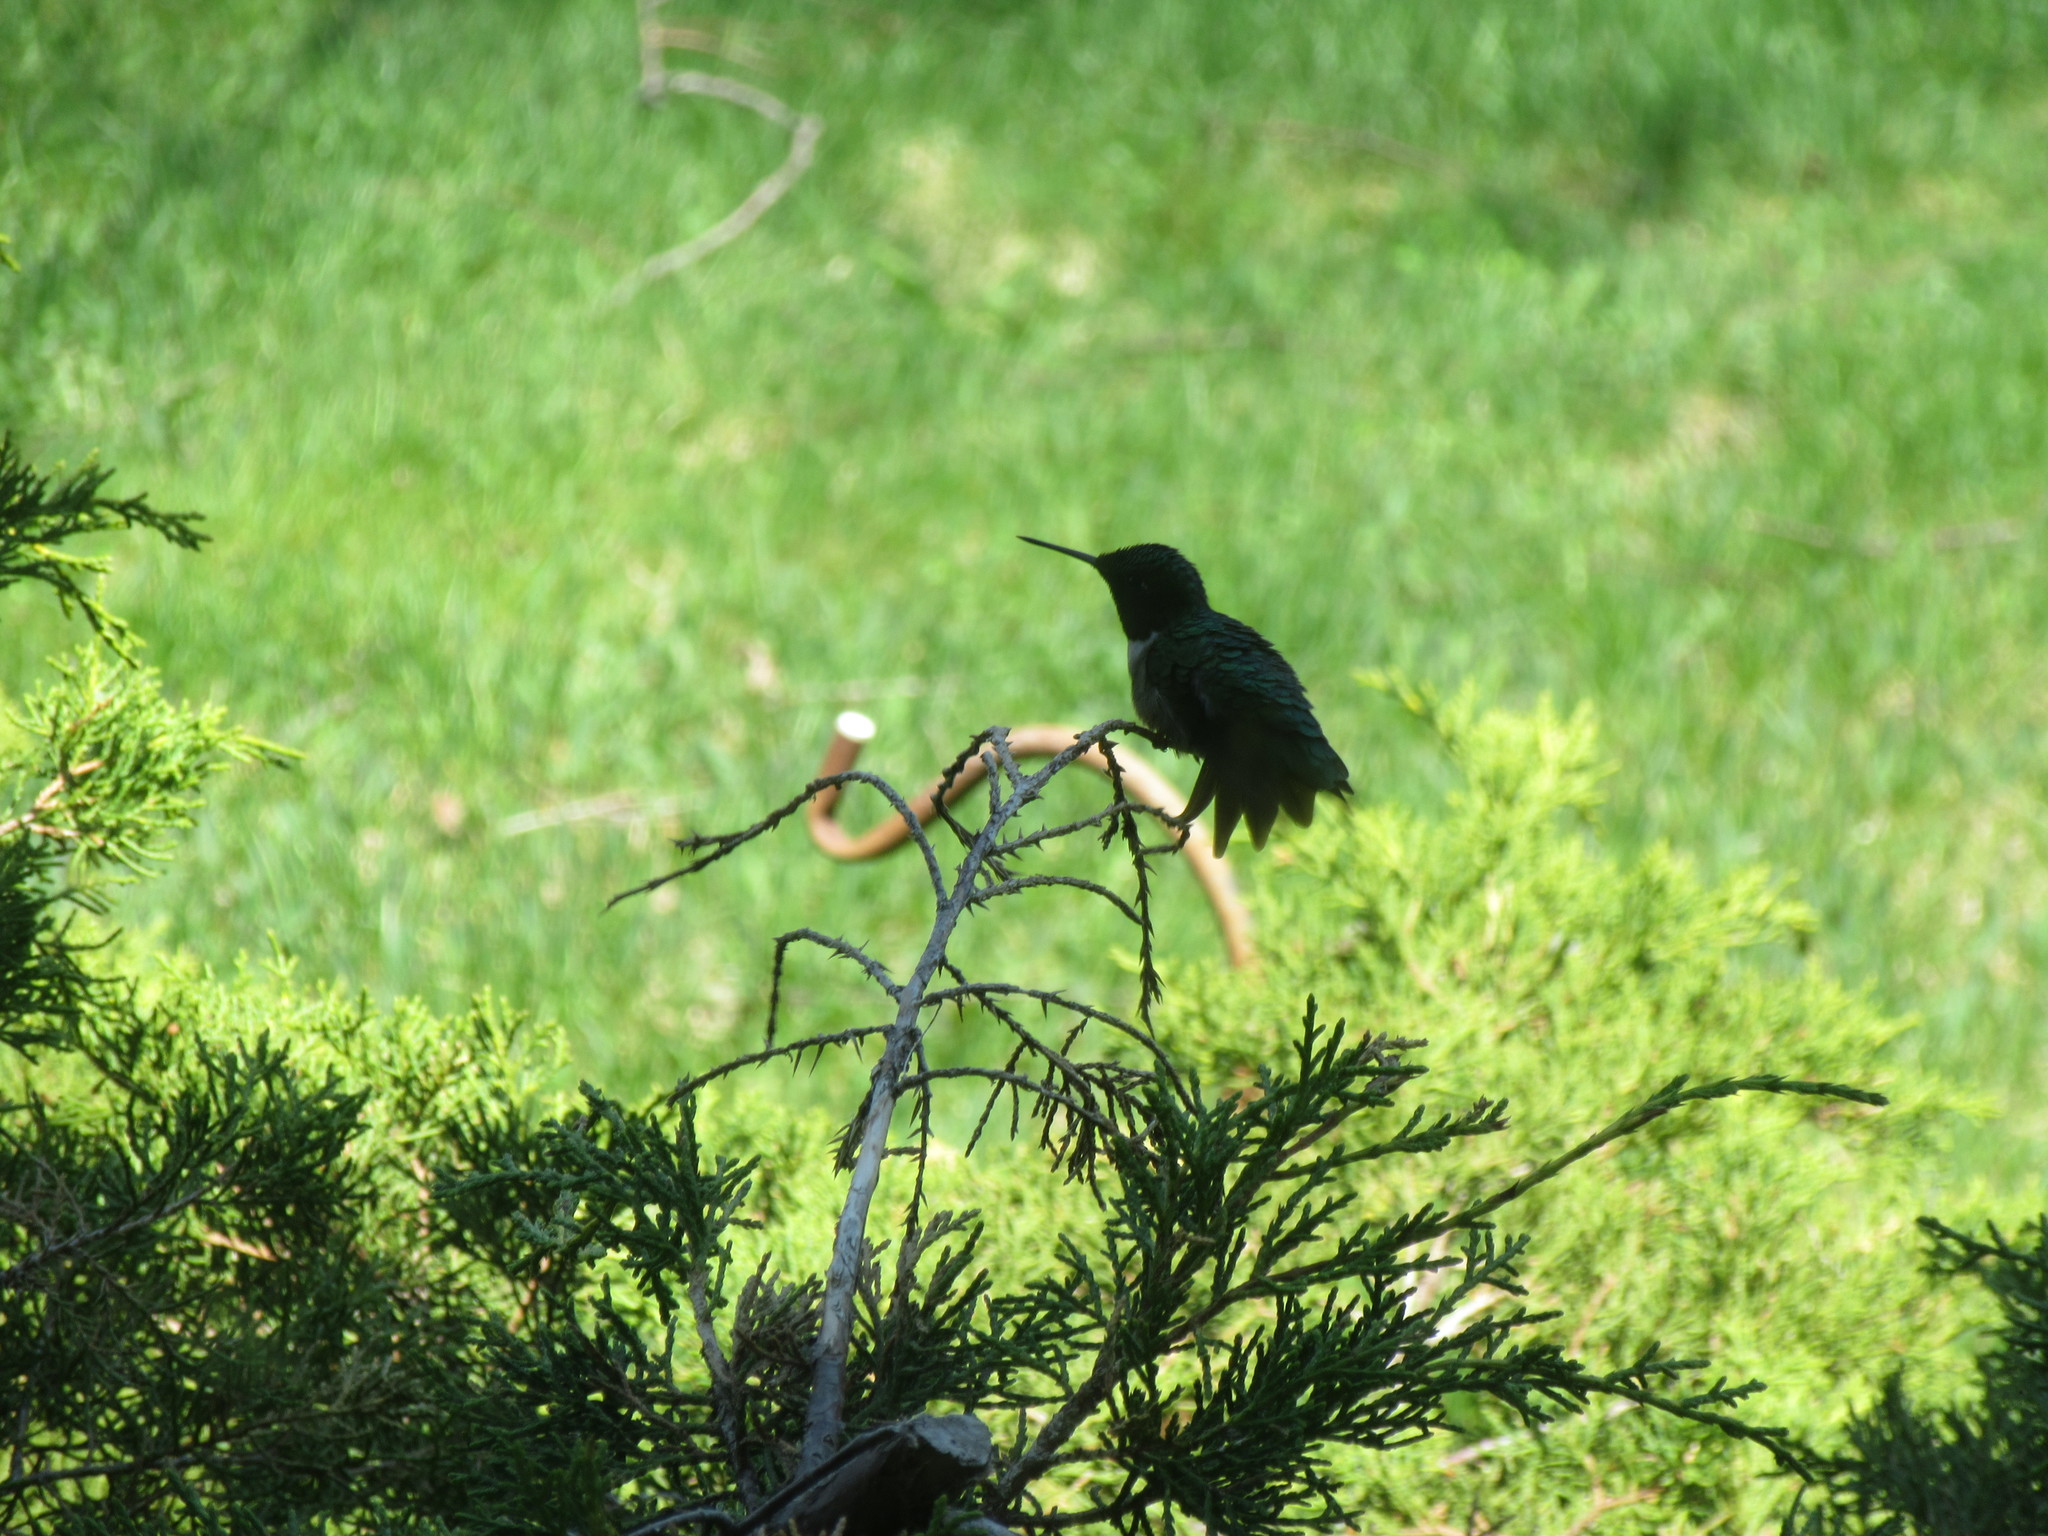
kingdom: Animalia
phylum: Chordata
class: Aves
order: Apodiformes
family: Trochilidae
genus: Archilochus
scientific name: Archilochus colubris
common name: Ruby-throated hummingbird
